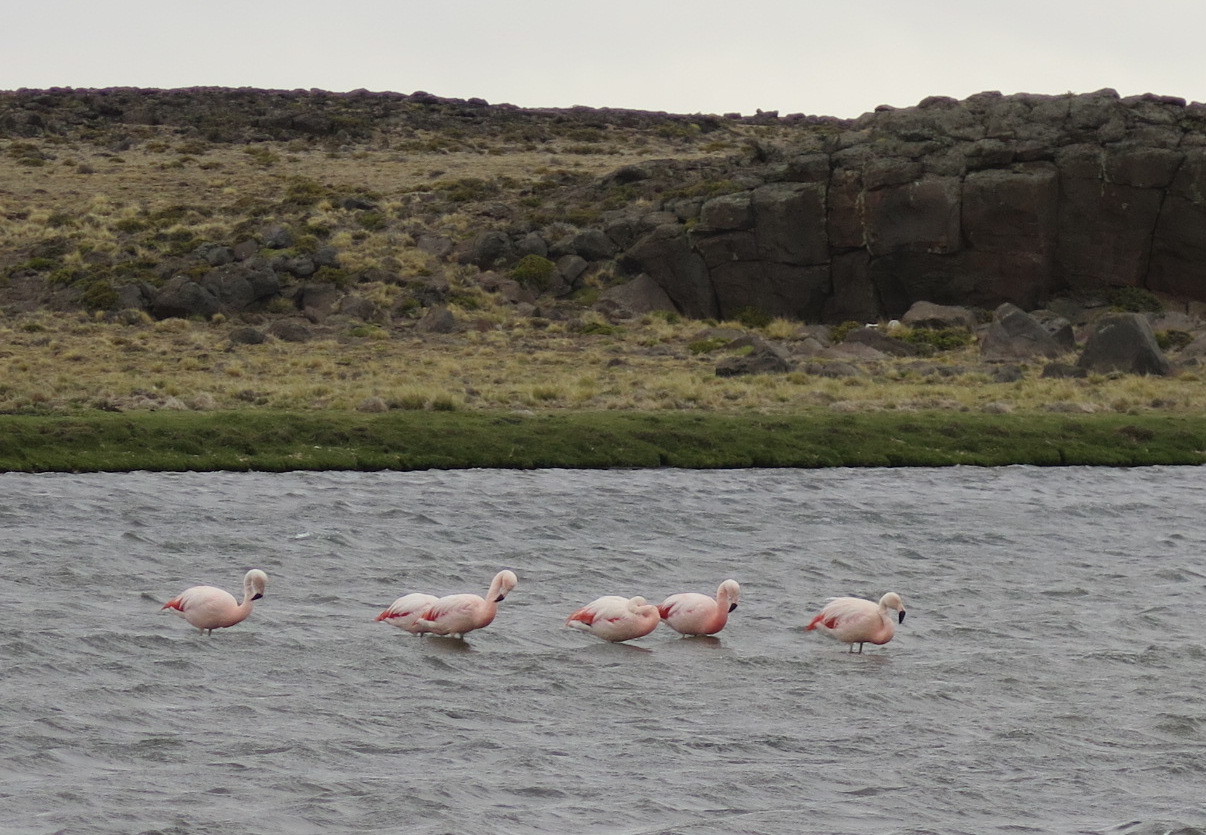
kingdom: Animalia
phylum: Chordata
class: Aves
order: Phoenicopteriformes
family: Phoenicopteridae
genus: Phoenicopterus
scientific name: Phoenicopterus chilensis
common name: Chilean flamingo
